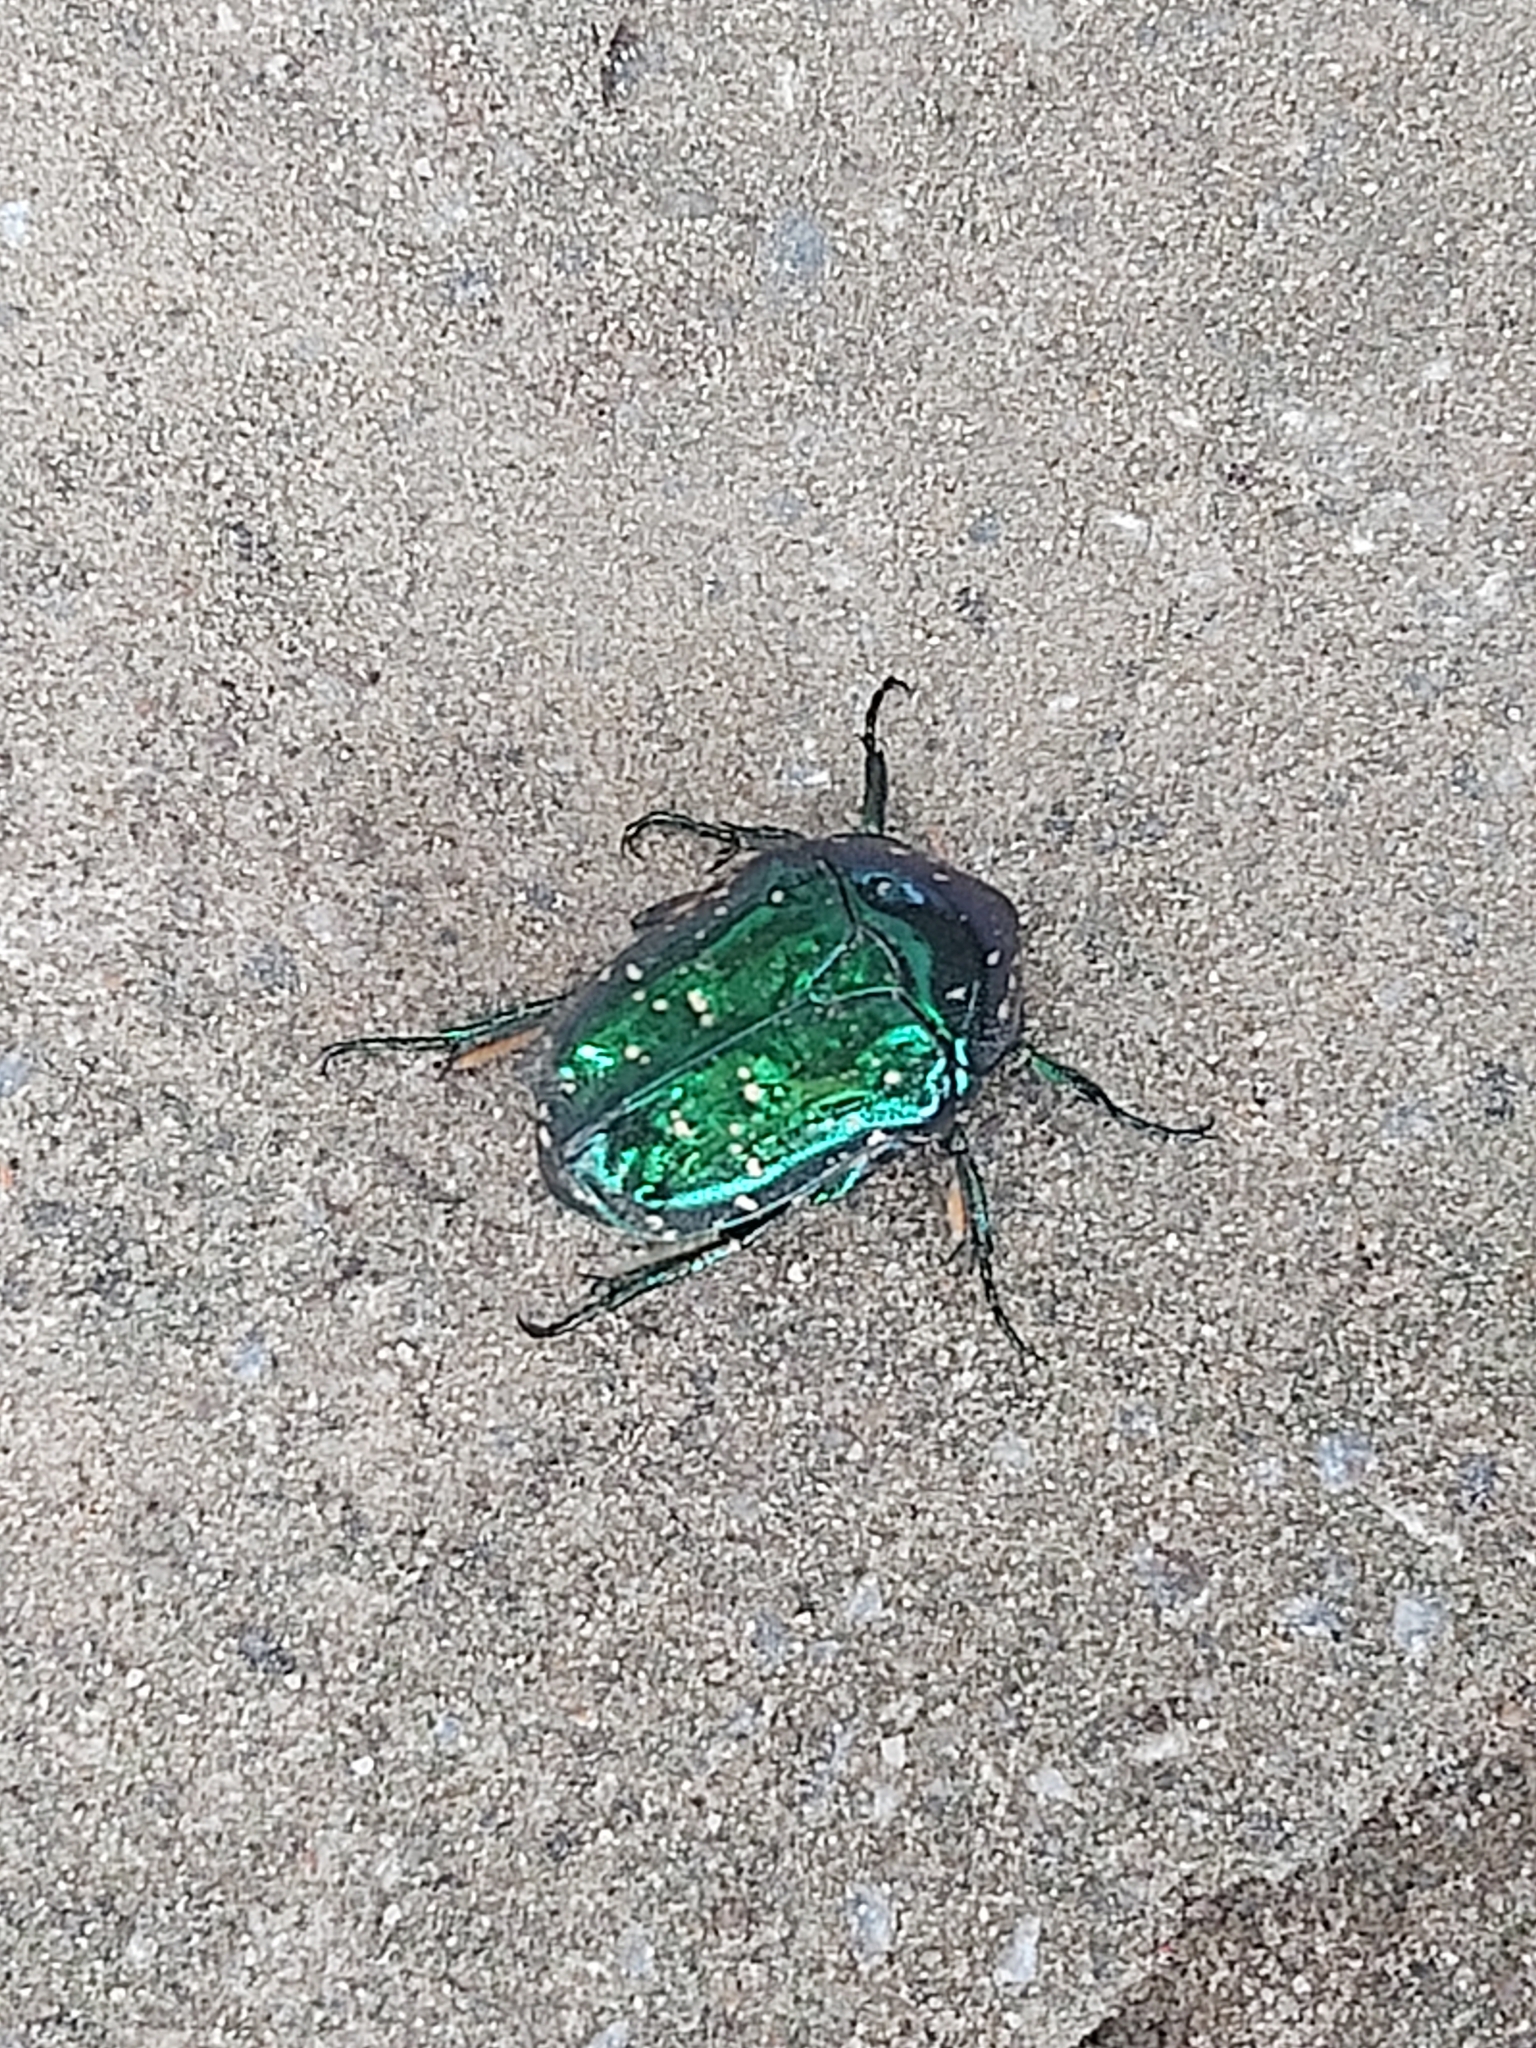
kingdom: Animalia
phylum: Arthropoda
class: Insecta
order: Coleoptera
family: Scarabaeidae
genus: Protaetia
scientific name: Protaetia inquinata
